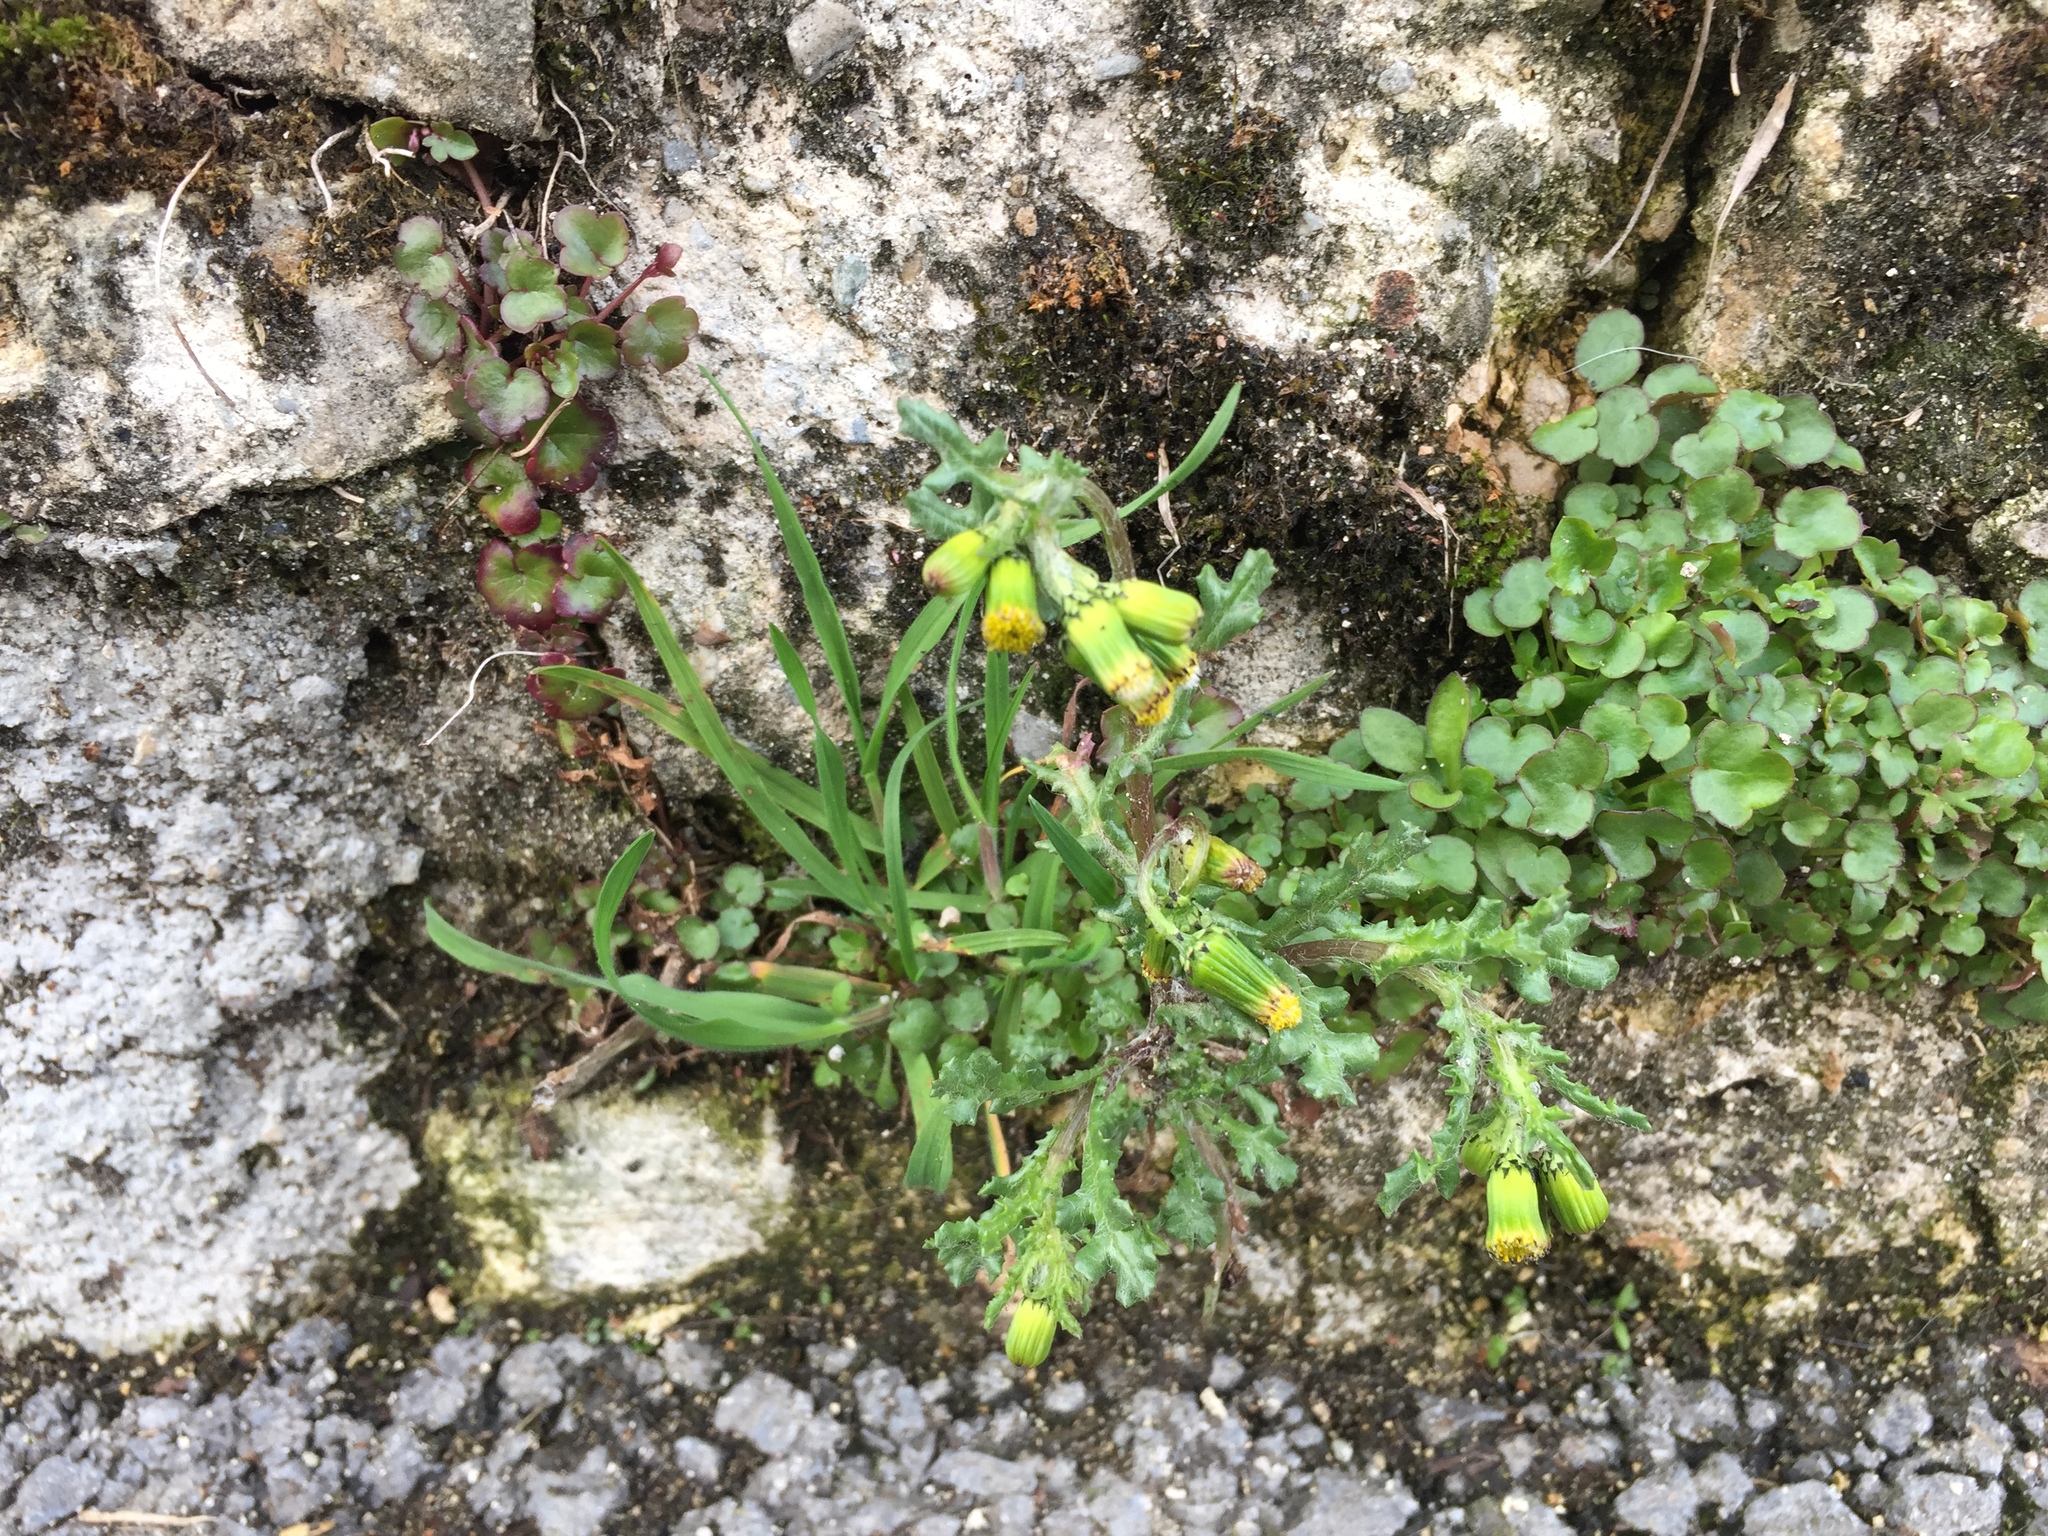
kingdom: Plantae
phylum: Tracheophyta
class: Magnoliopsida
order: Asterales
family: Asteraceae
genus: Senecio
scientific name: Senecio vulgaris
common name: Old-man-in-the-spring
